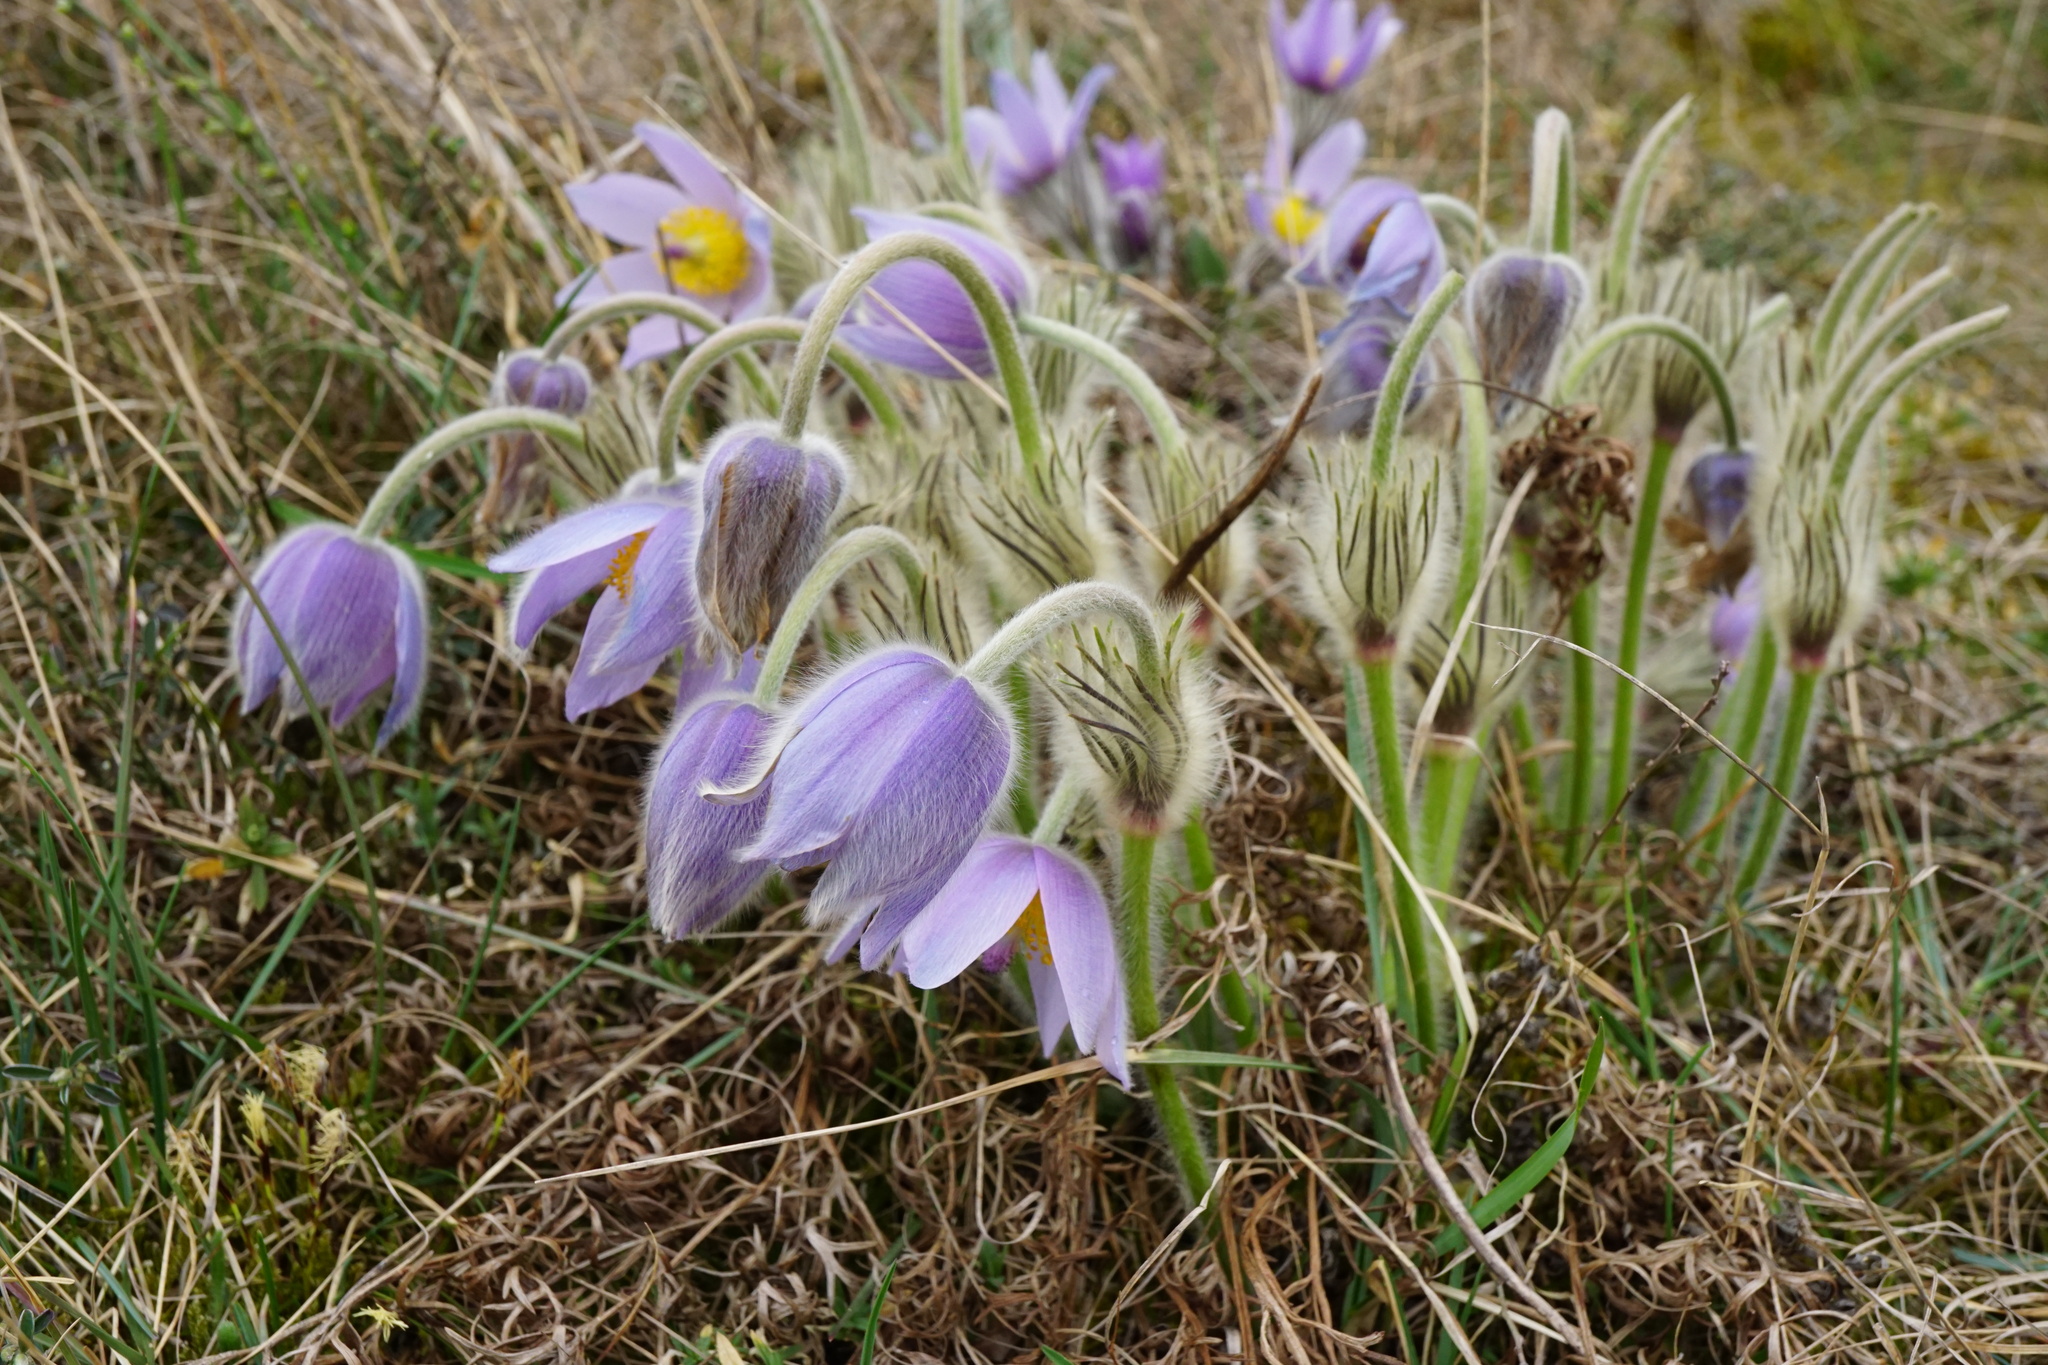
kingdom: Plantae
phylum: Tracheophyta
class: Magnoliopsida
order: Ranunculales
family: Ranunculaceae
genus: Pulsatilla
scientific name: Pulsatilla grandis
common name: Greater pasque flower
